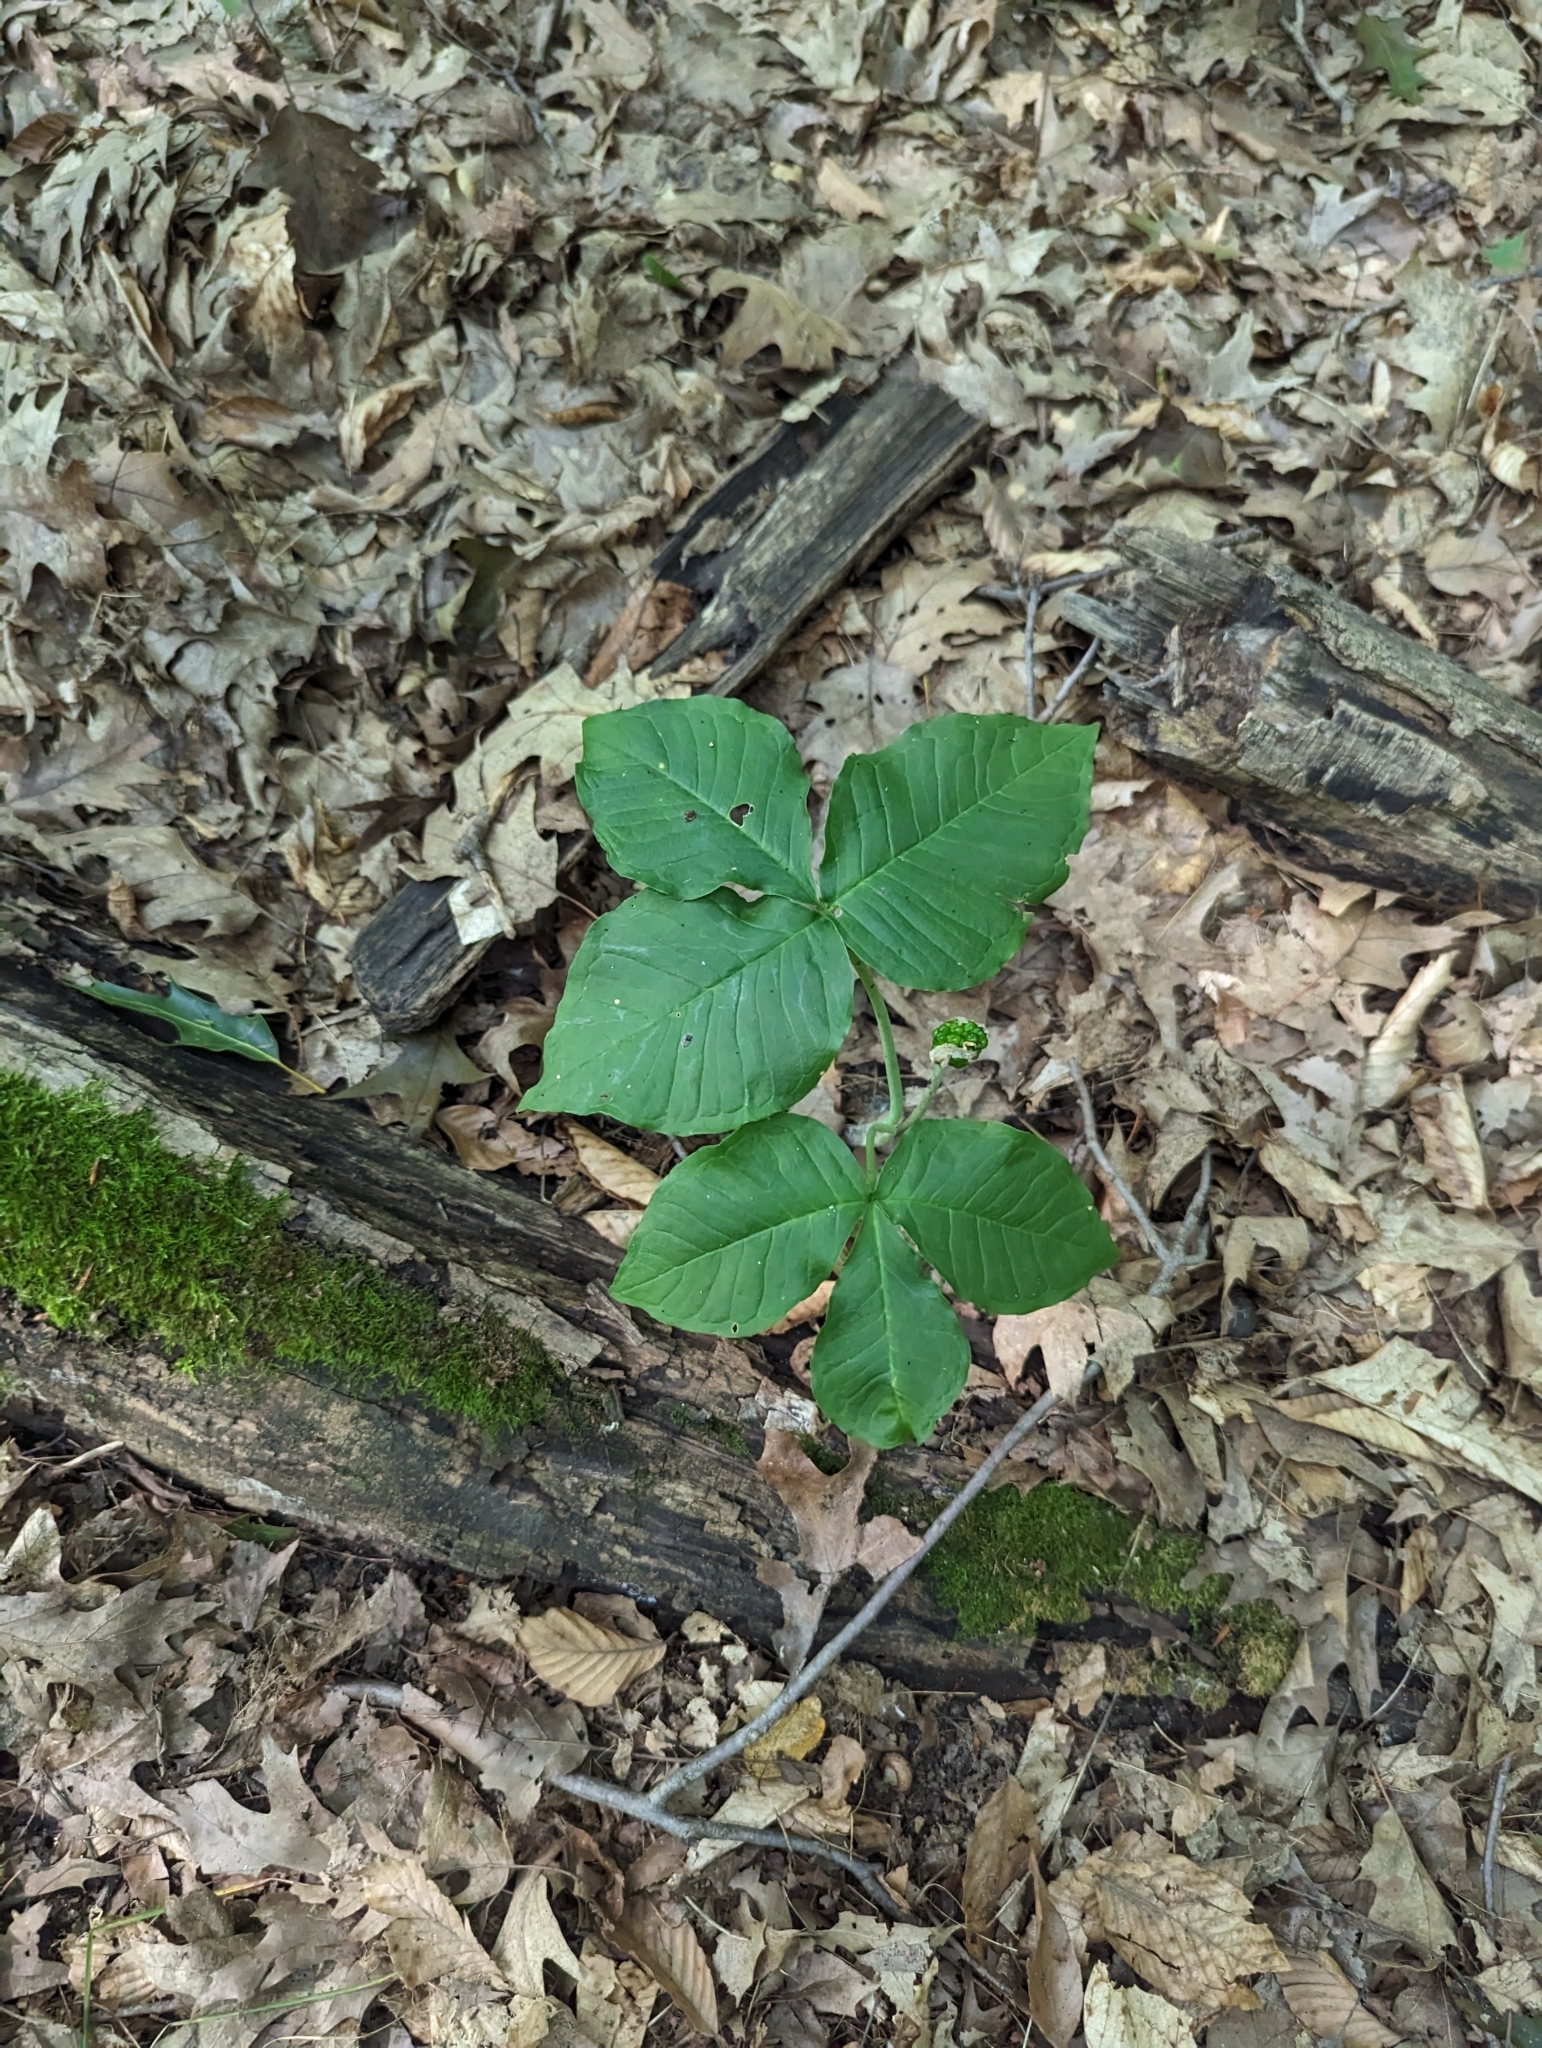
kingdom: Plantae
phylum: Tracheophyta
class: Liliopsida
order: Alismatales
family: Araceae
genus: Arisaema
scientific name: Arisaema triphyllum
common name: Jack-in-the-pulpit
